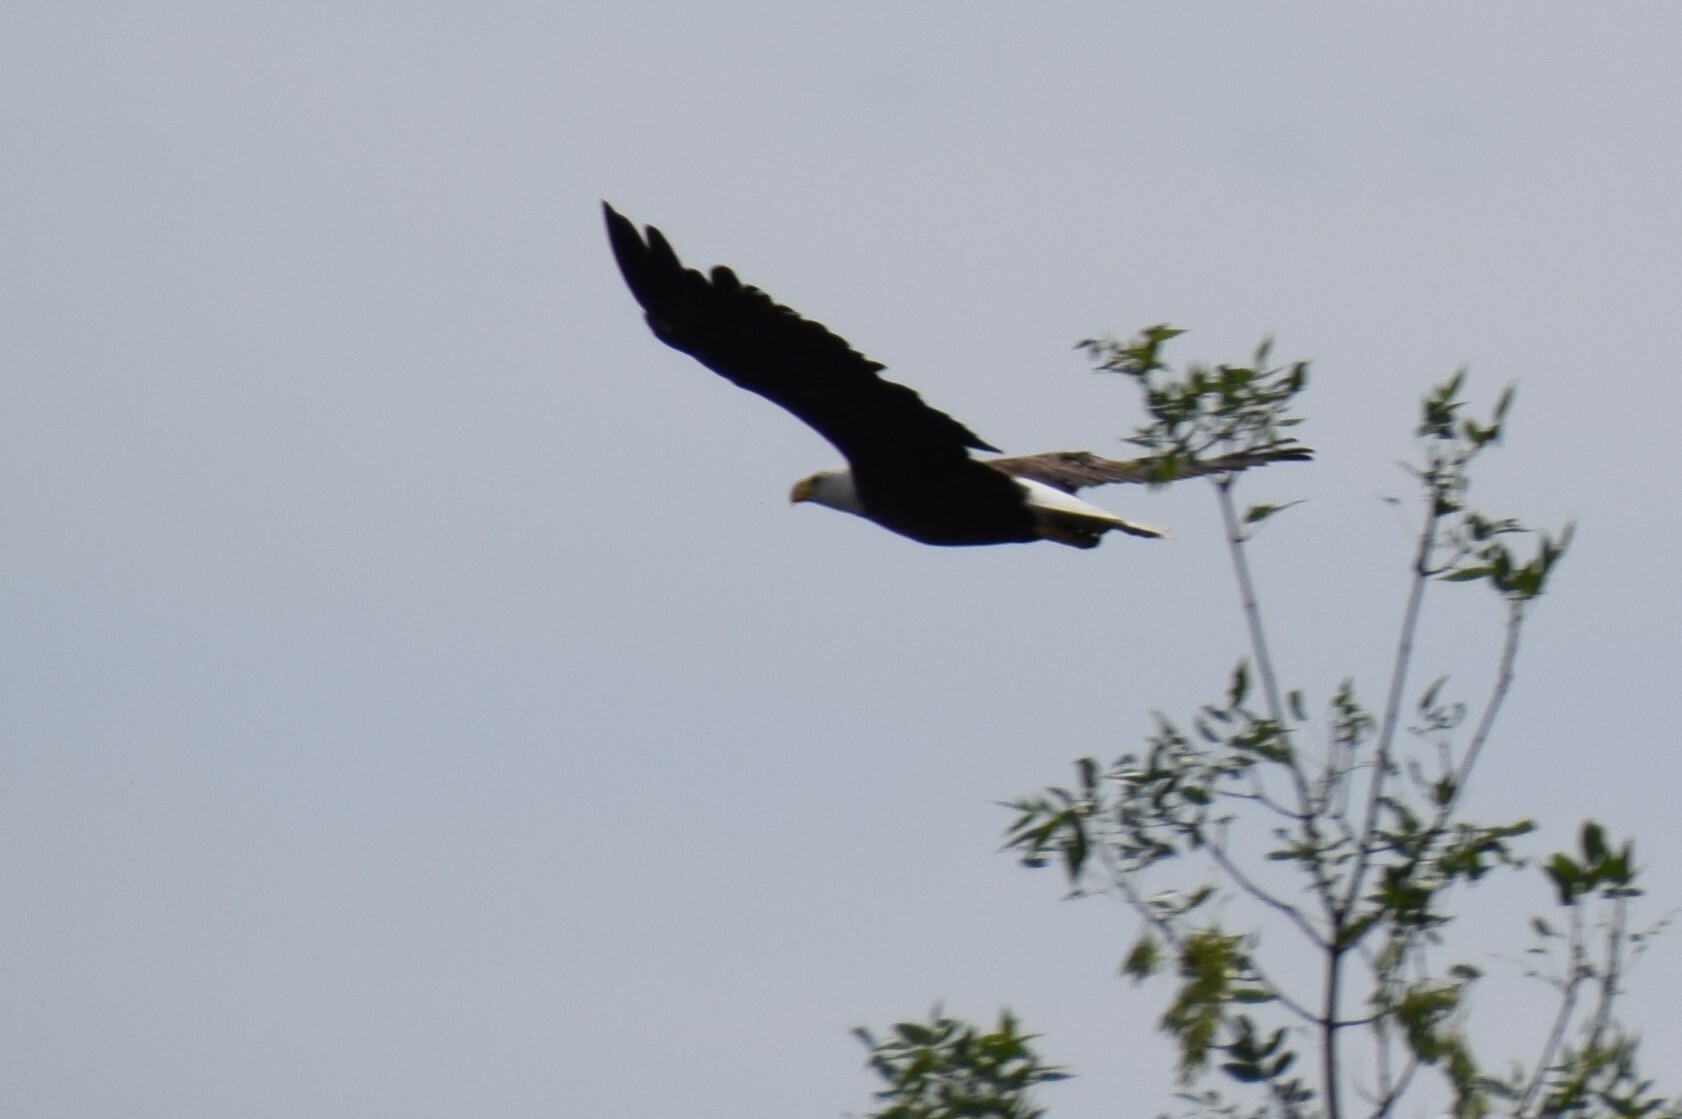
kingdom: Animalia
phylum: Chordata
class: Aves
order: Accipitriformes
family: Accipitridae
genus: Haliaeetus
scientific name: Haliaeetus leucocephalus
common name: Bald eagle
